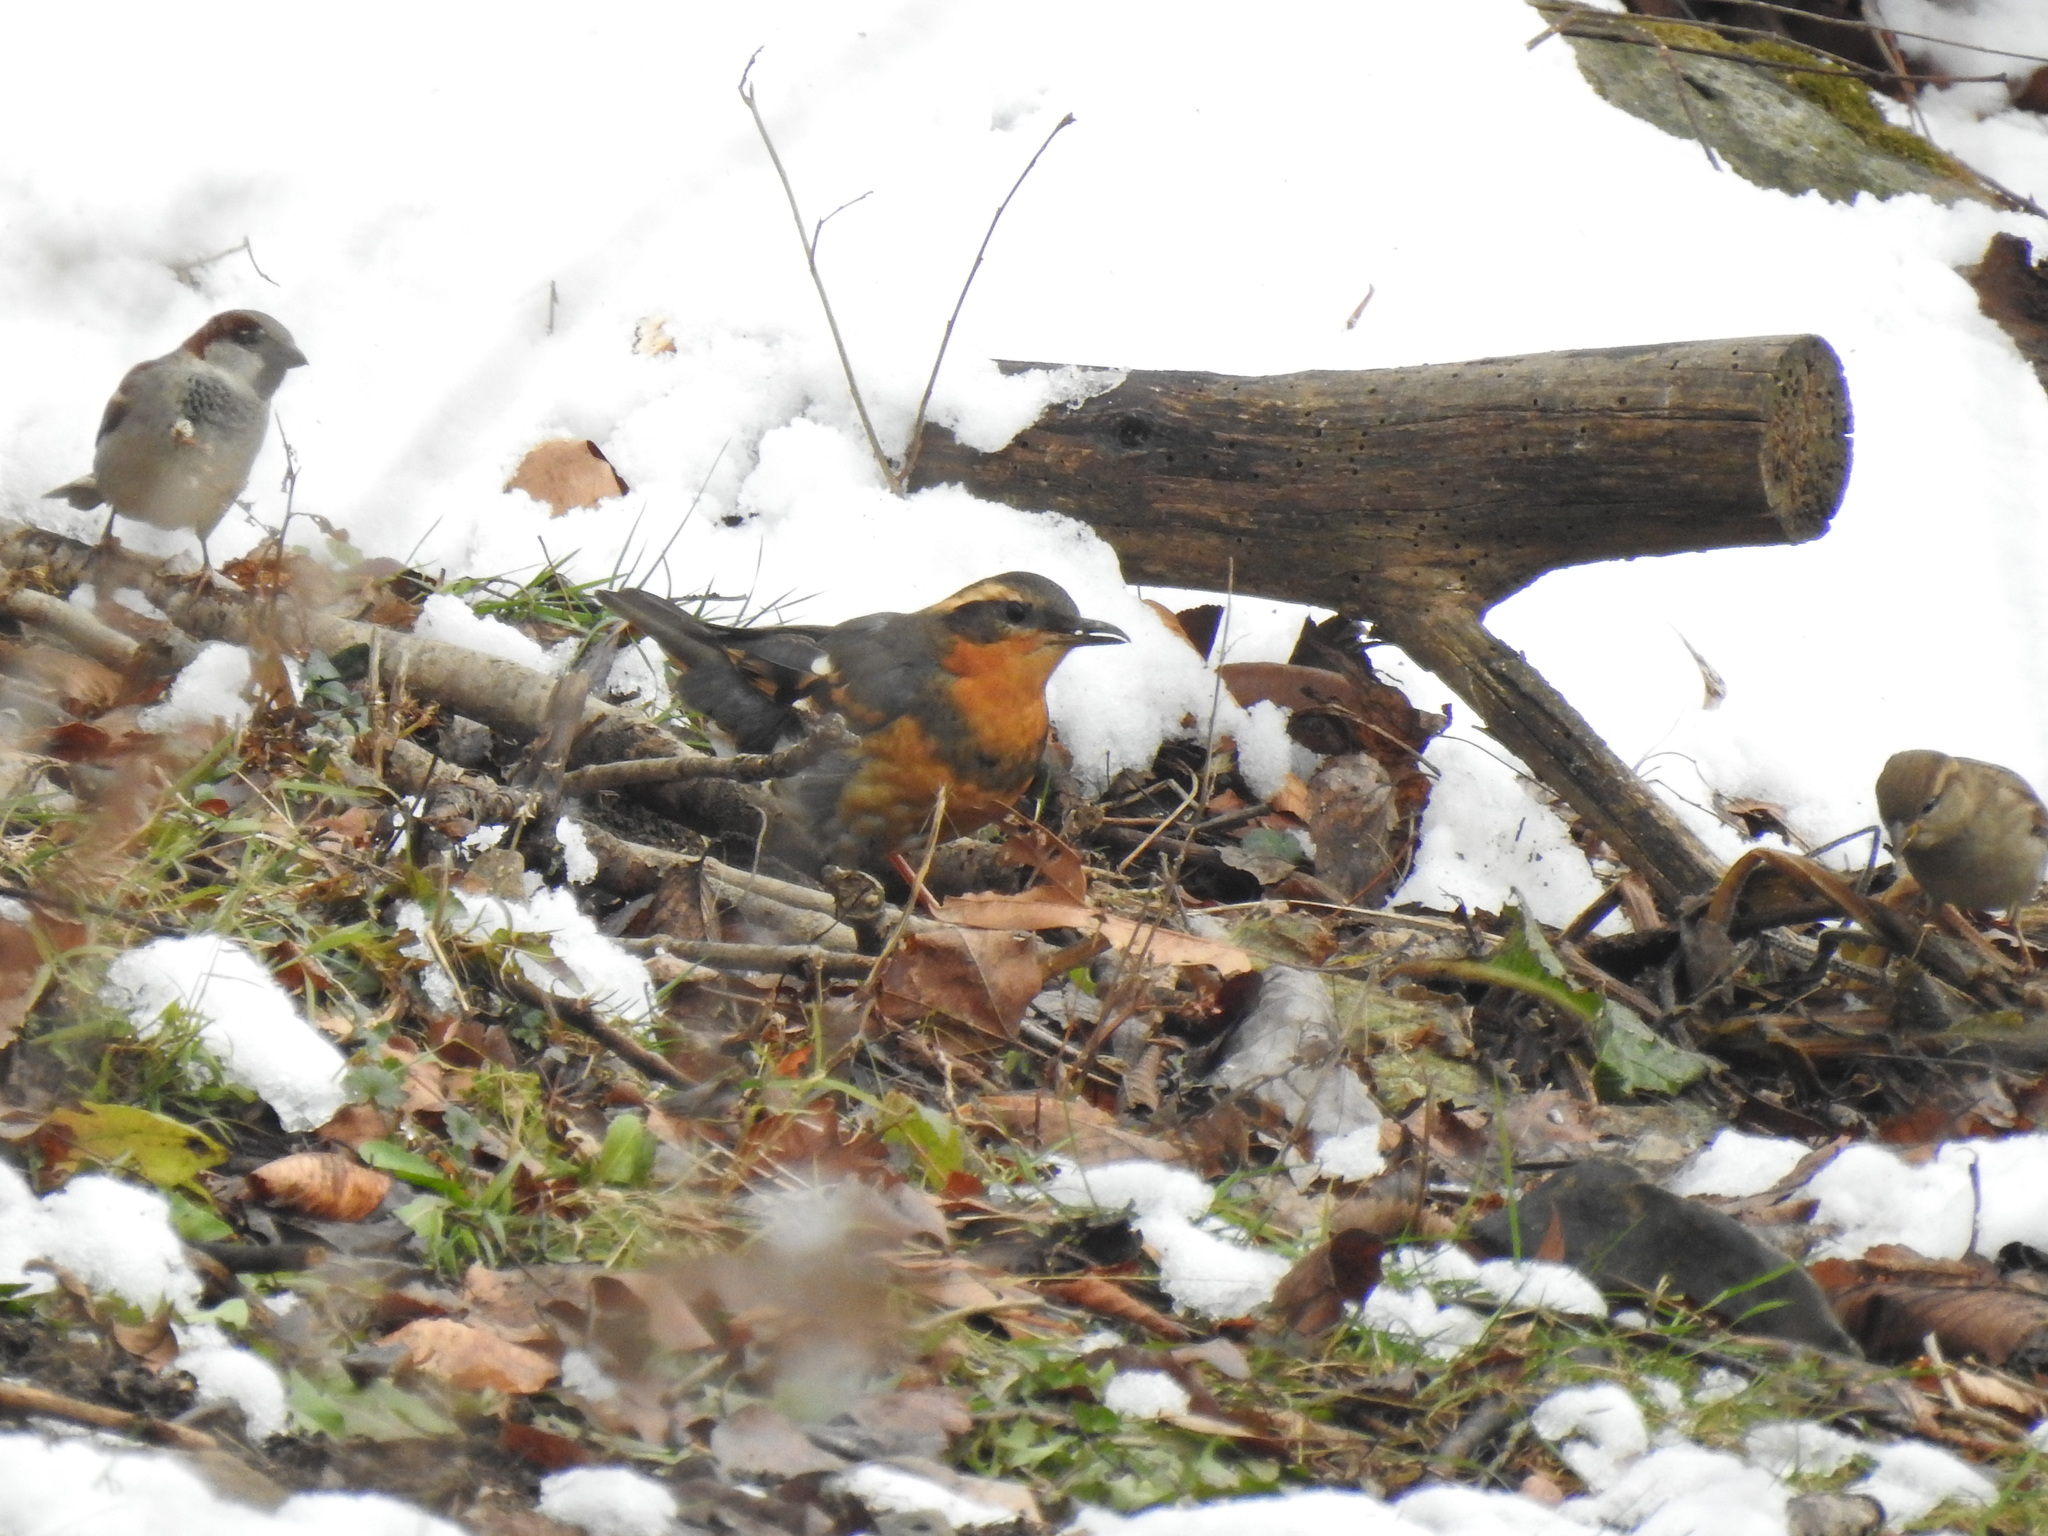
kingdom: Animalia
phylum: Chordata
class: Aves
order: Passeriformes
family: Turdidae
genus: Ixoreus
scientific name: Ixoreus naevius
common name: Varied thrush
